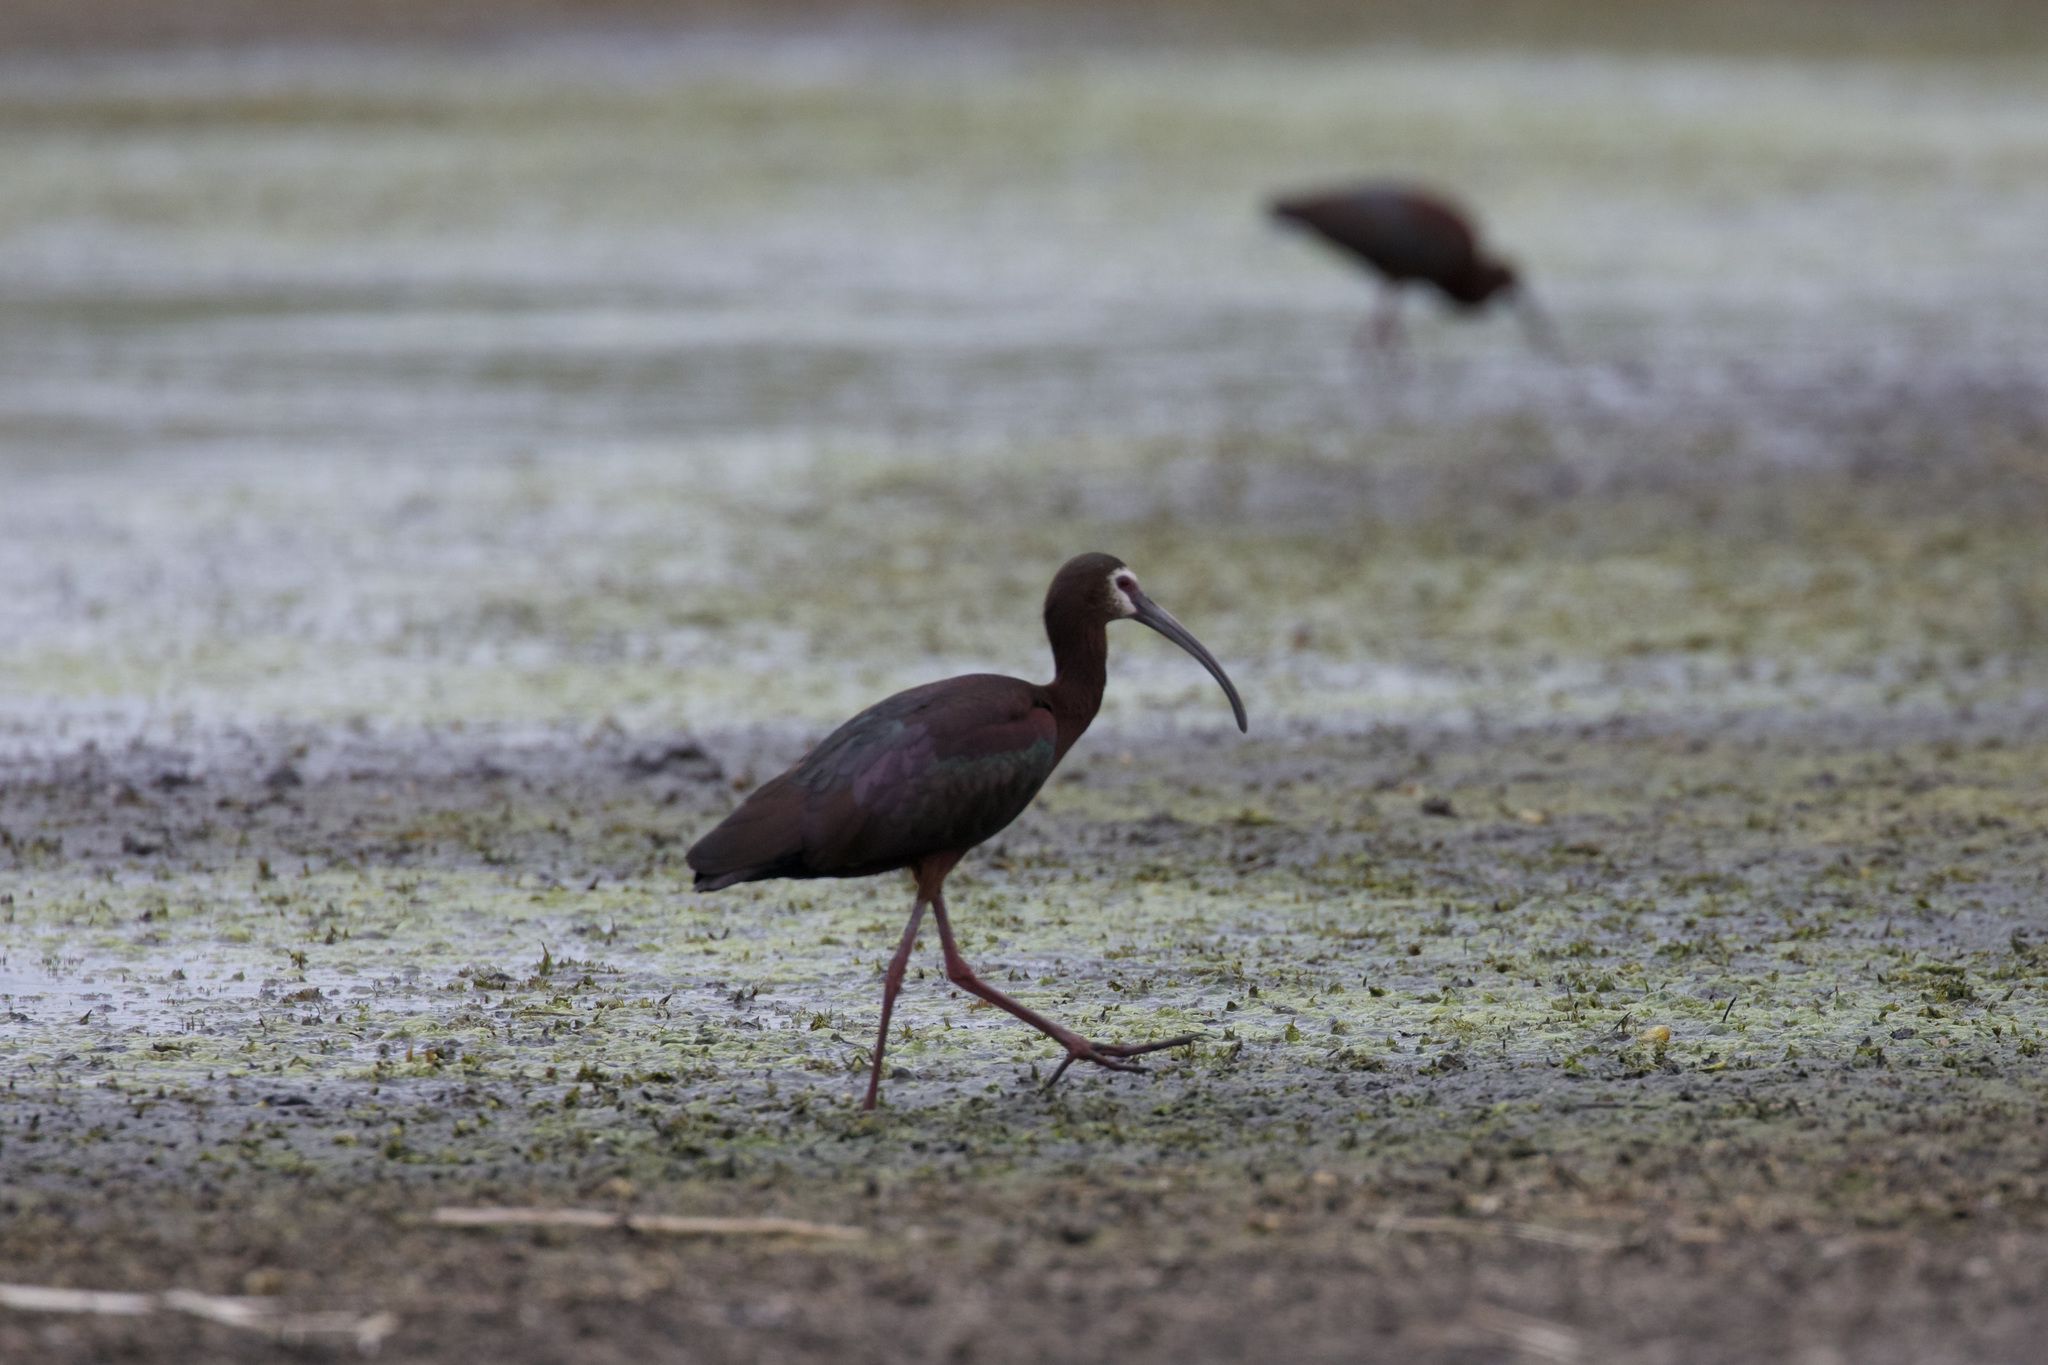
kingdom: Animalia
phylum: Chordata
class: Aves
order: Pelecaniformes
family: Threskiornithidae
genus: Plegadis
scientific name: Plegadis chihi
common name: White-faced ibis
